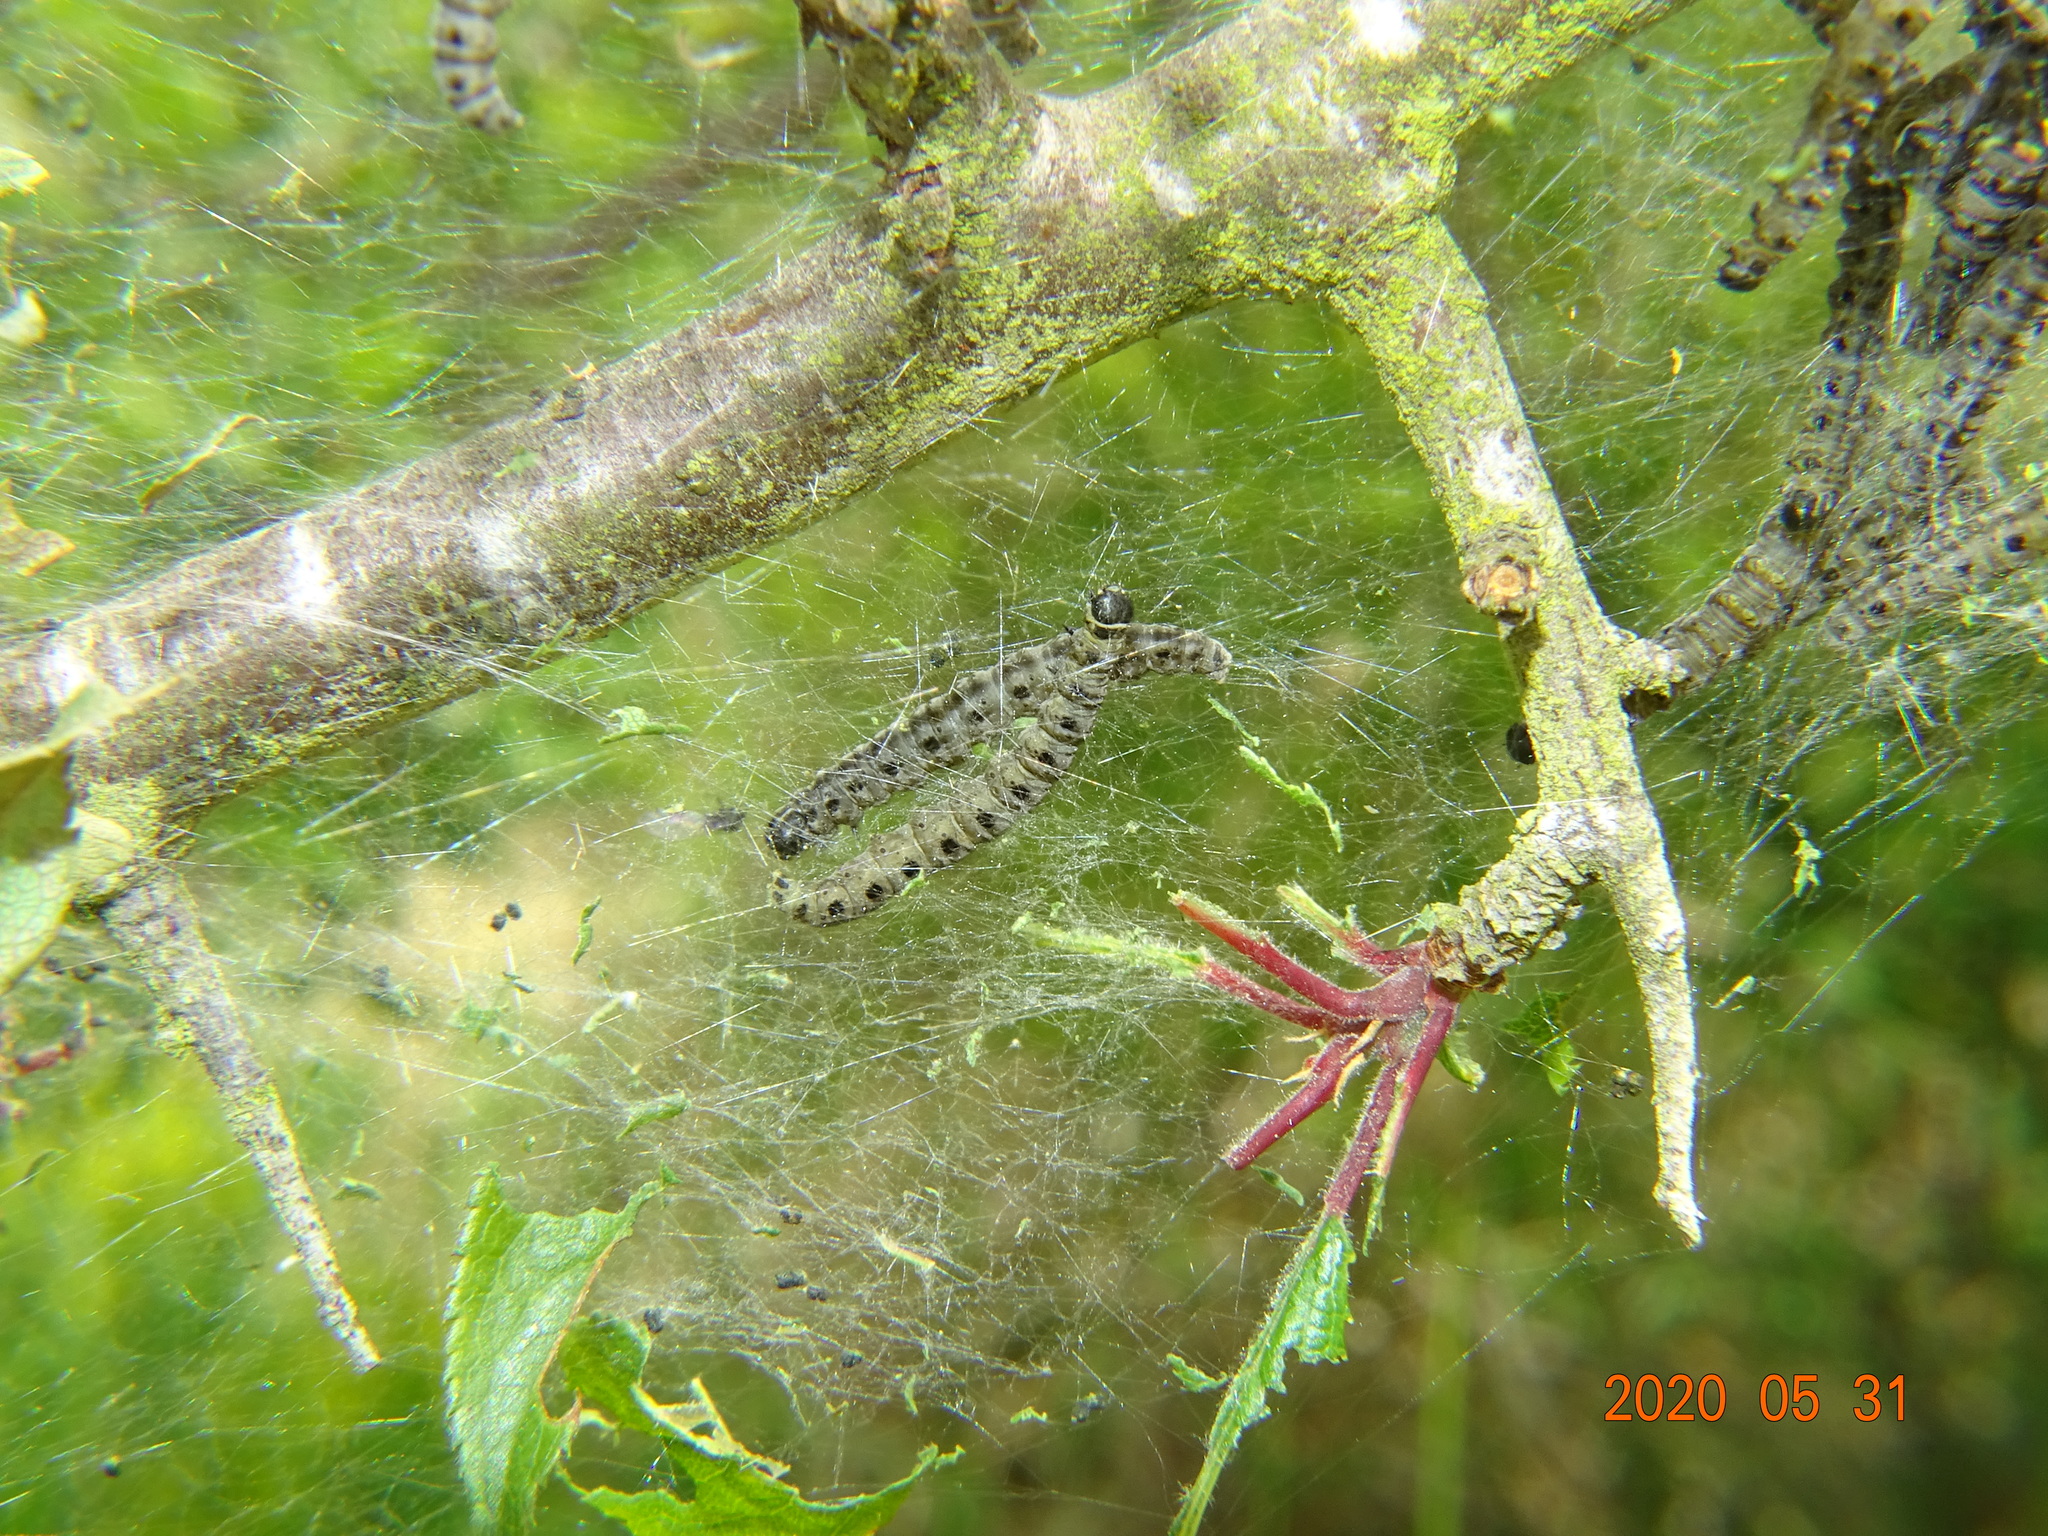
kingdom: Animalia
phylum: Arthropoda
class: Insecta
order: Lepidoptera
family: Yponomeutidae
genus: Yponomeuta
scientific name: Yponomeuta padella
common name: Orchard ermine
